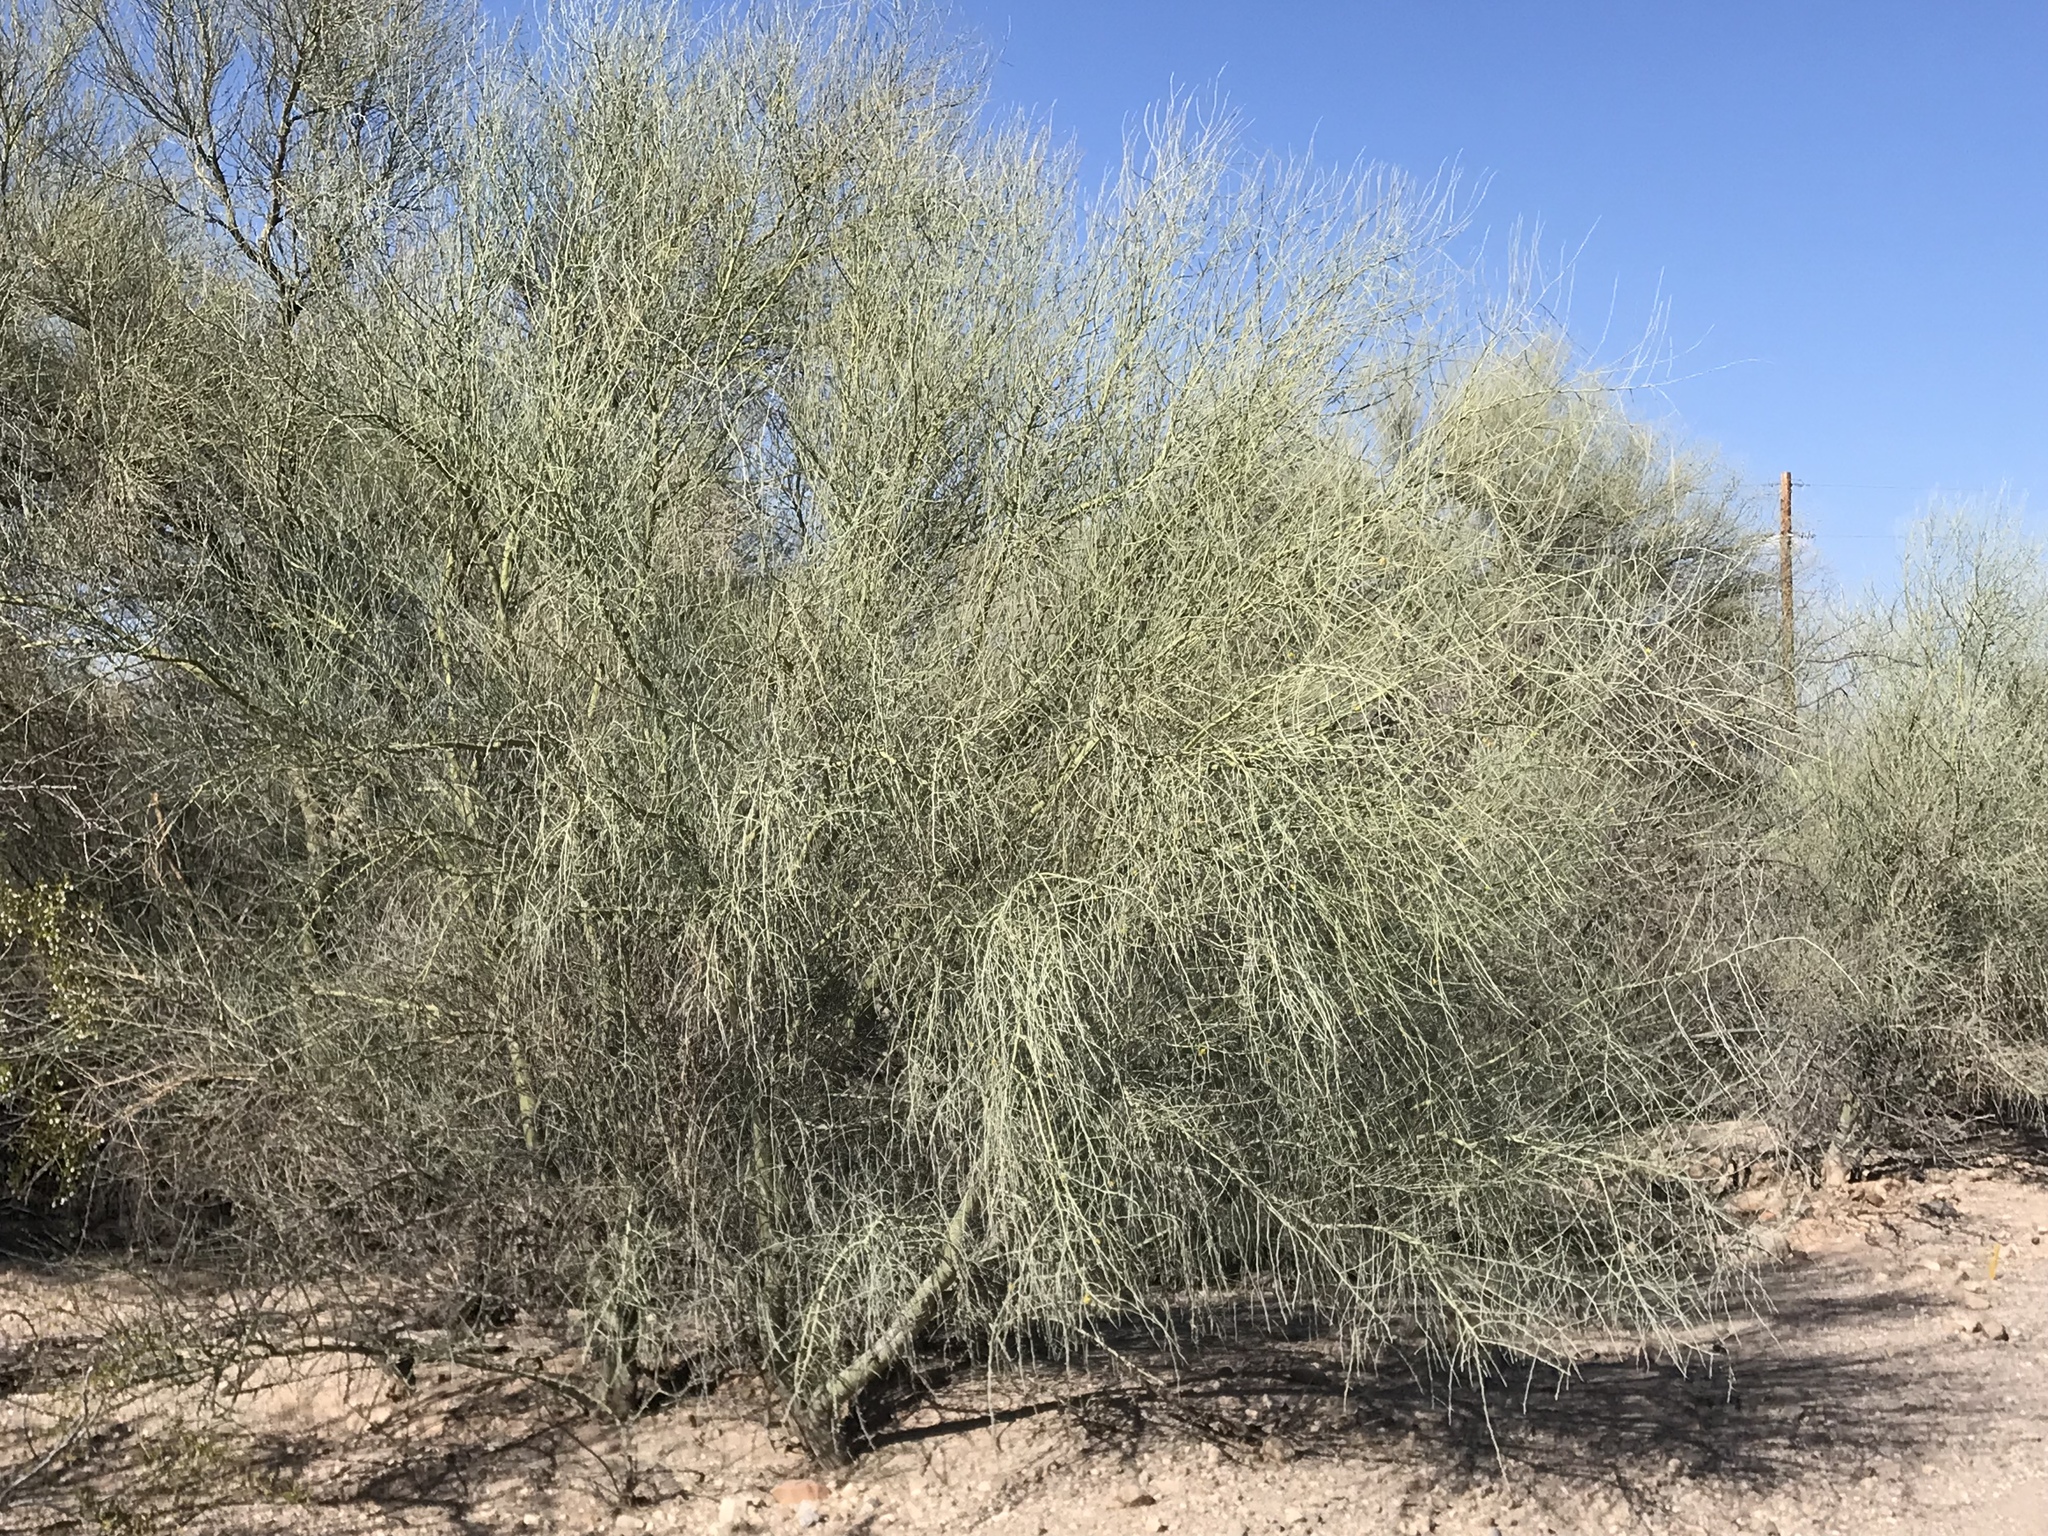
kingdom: Plantae
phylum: Tracheophyta
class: Magnoliopsida
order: Fabales
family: Fabaceae
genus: Parkinsonia
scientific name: Parkinsonia florida
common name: Blue paloverde
